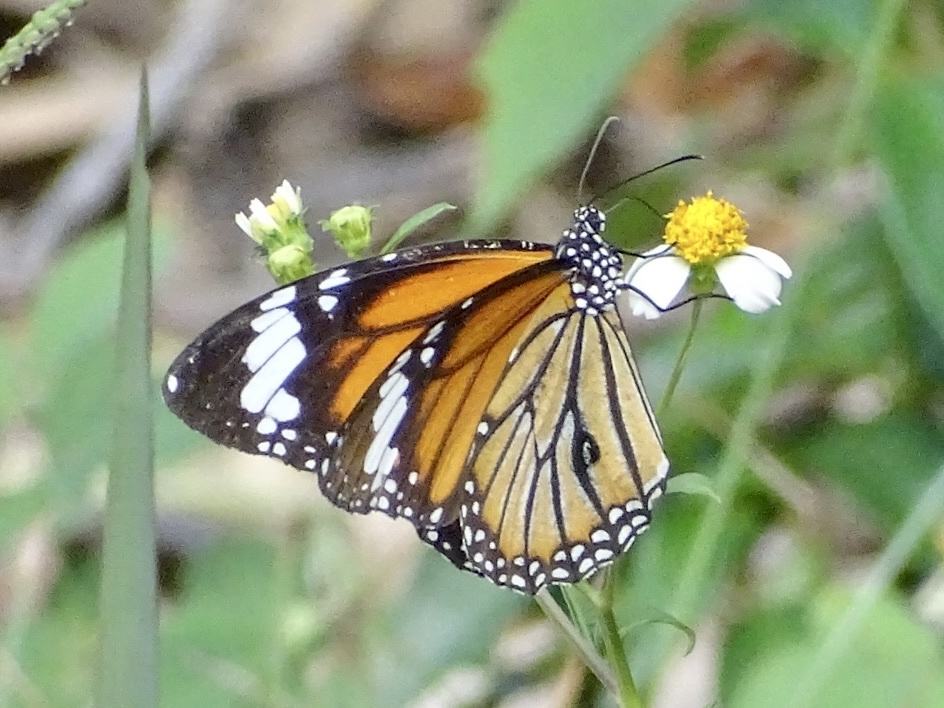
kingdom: Animalia
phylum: Arthropoda
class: Insecta
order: Lepidoptera
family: Nymphalidae
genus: Danaus
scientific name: Danaus genutia
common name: Common tiger butterfly
